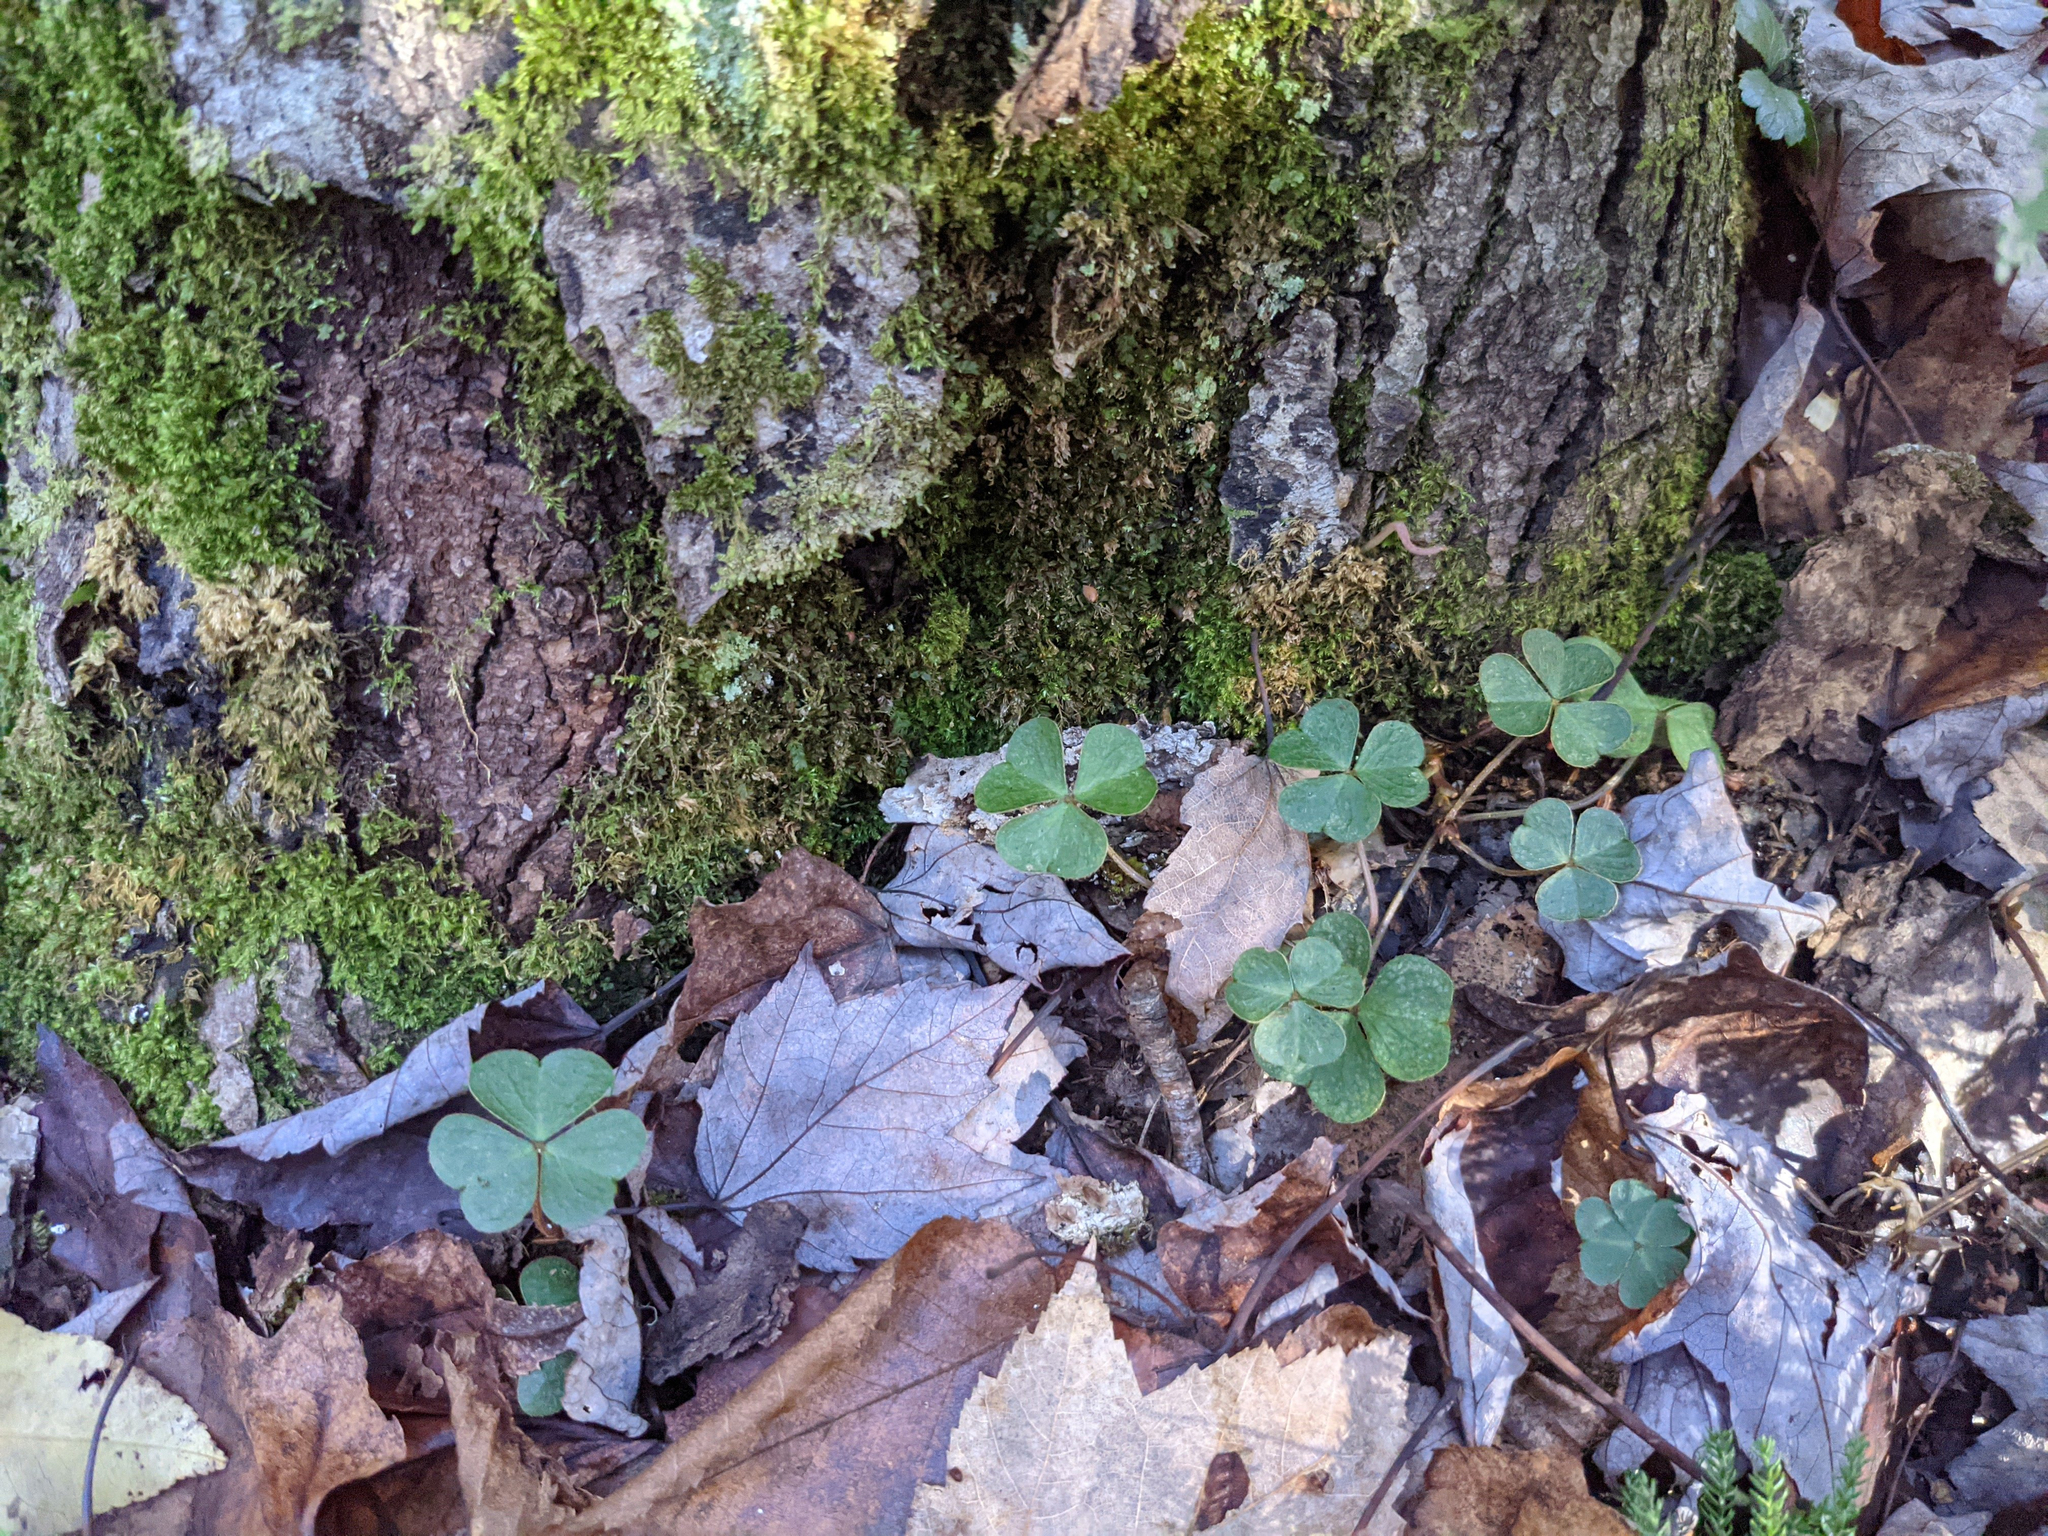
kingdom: Plantae
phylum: Tracheophyta
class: Magnoliopsida
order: Oxalidales
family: Oxalidaceae
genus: Oxalis
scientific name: Oxalis montana
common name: American wood-sorrel
